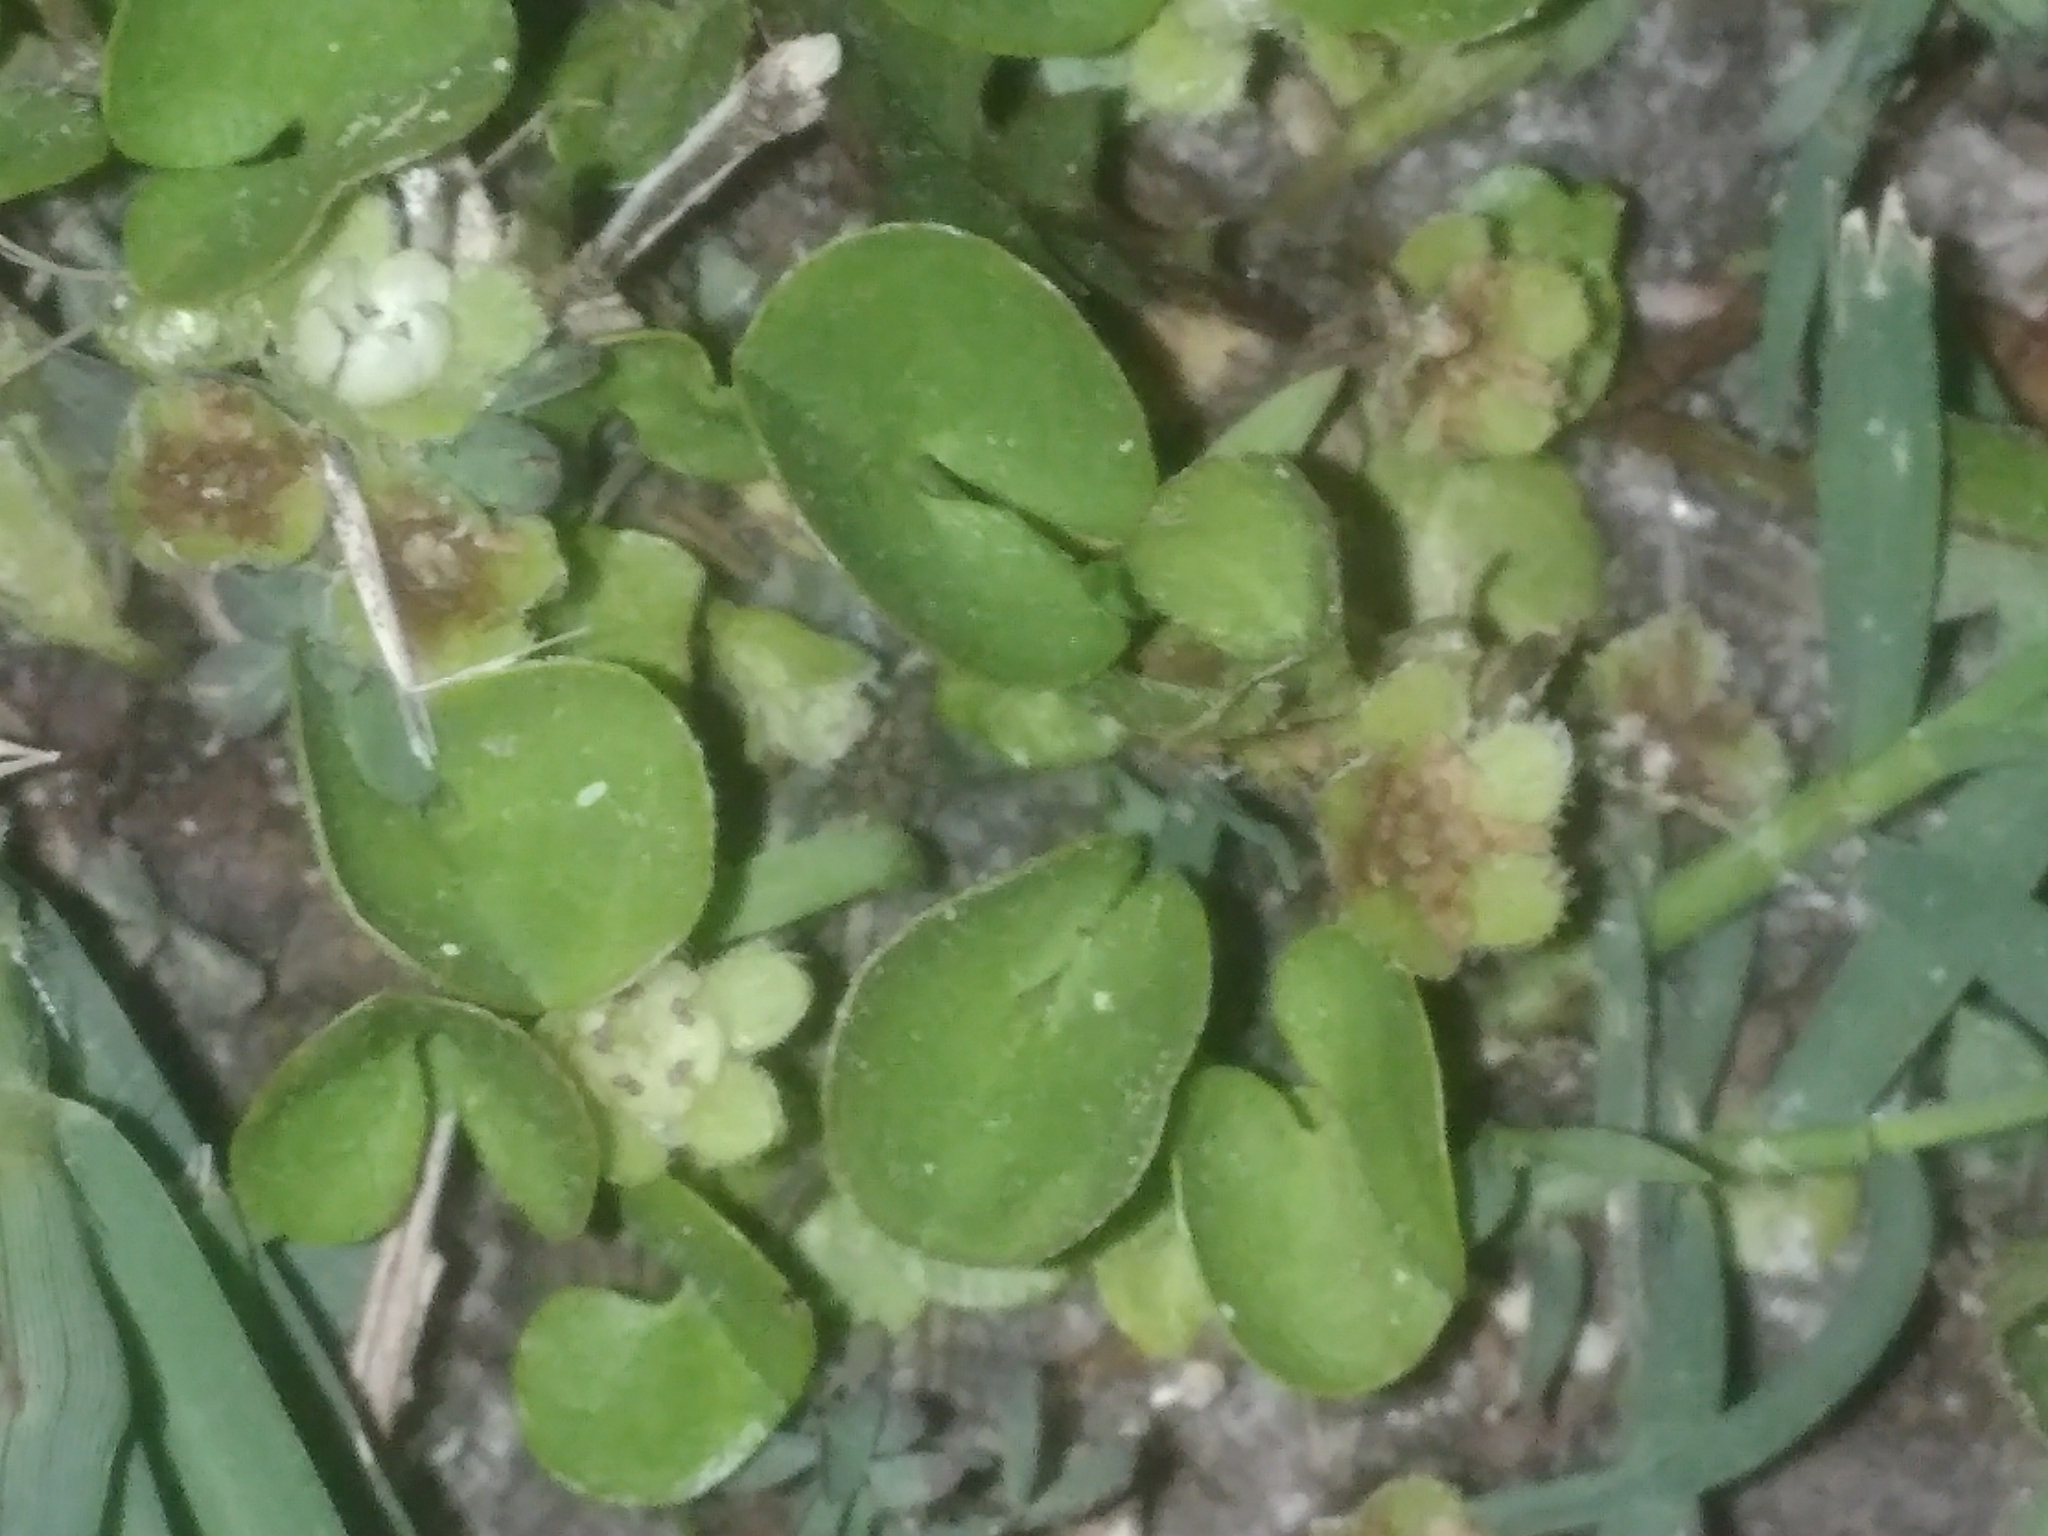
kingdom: Plantae
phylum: Tracheophyta
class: Magnoliopsida
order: Solanales
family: Convolvulaceae
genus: Dichondra
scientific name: Dichondra carolinensis
